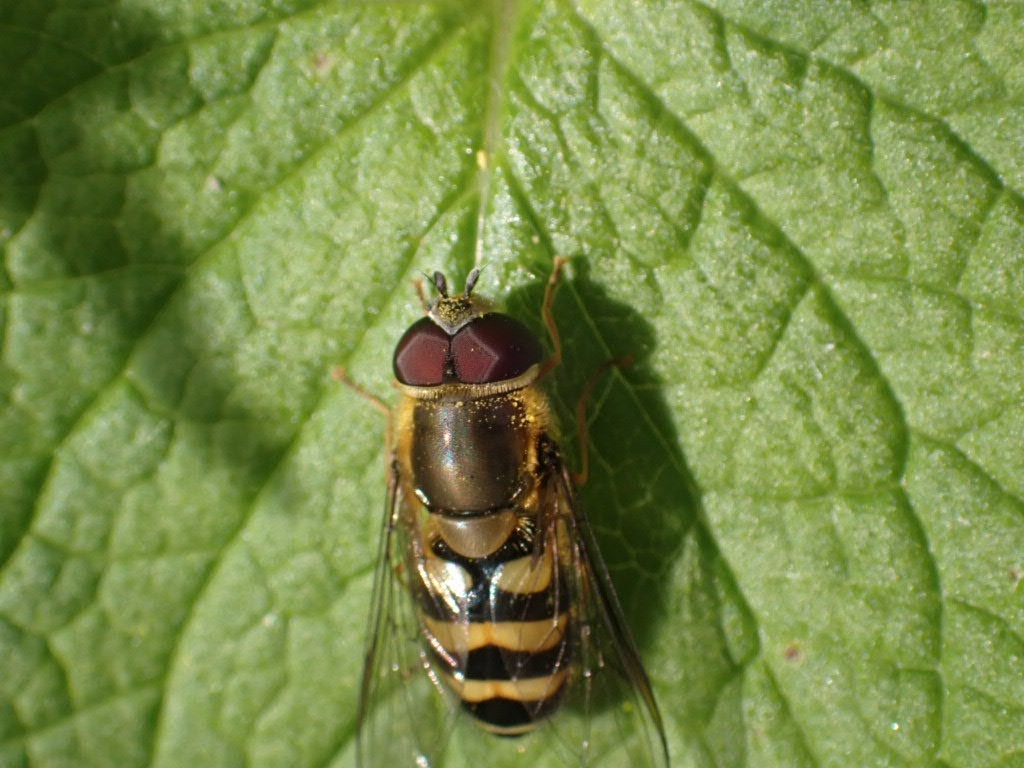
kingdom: Animalia
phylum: Arthropoda
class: Insecta
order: Diptera
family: Syrphidae
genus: Syrphus
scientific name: Syrphus
